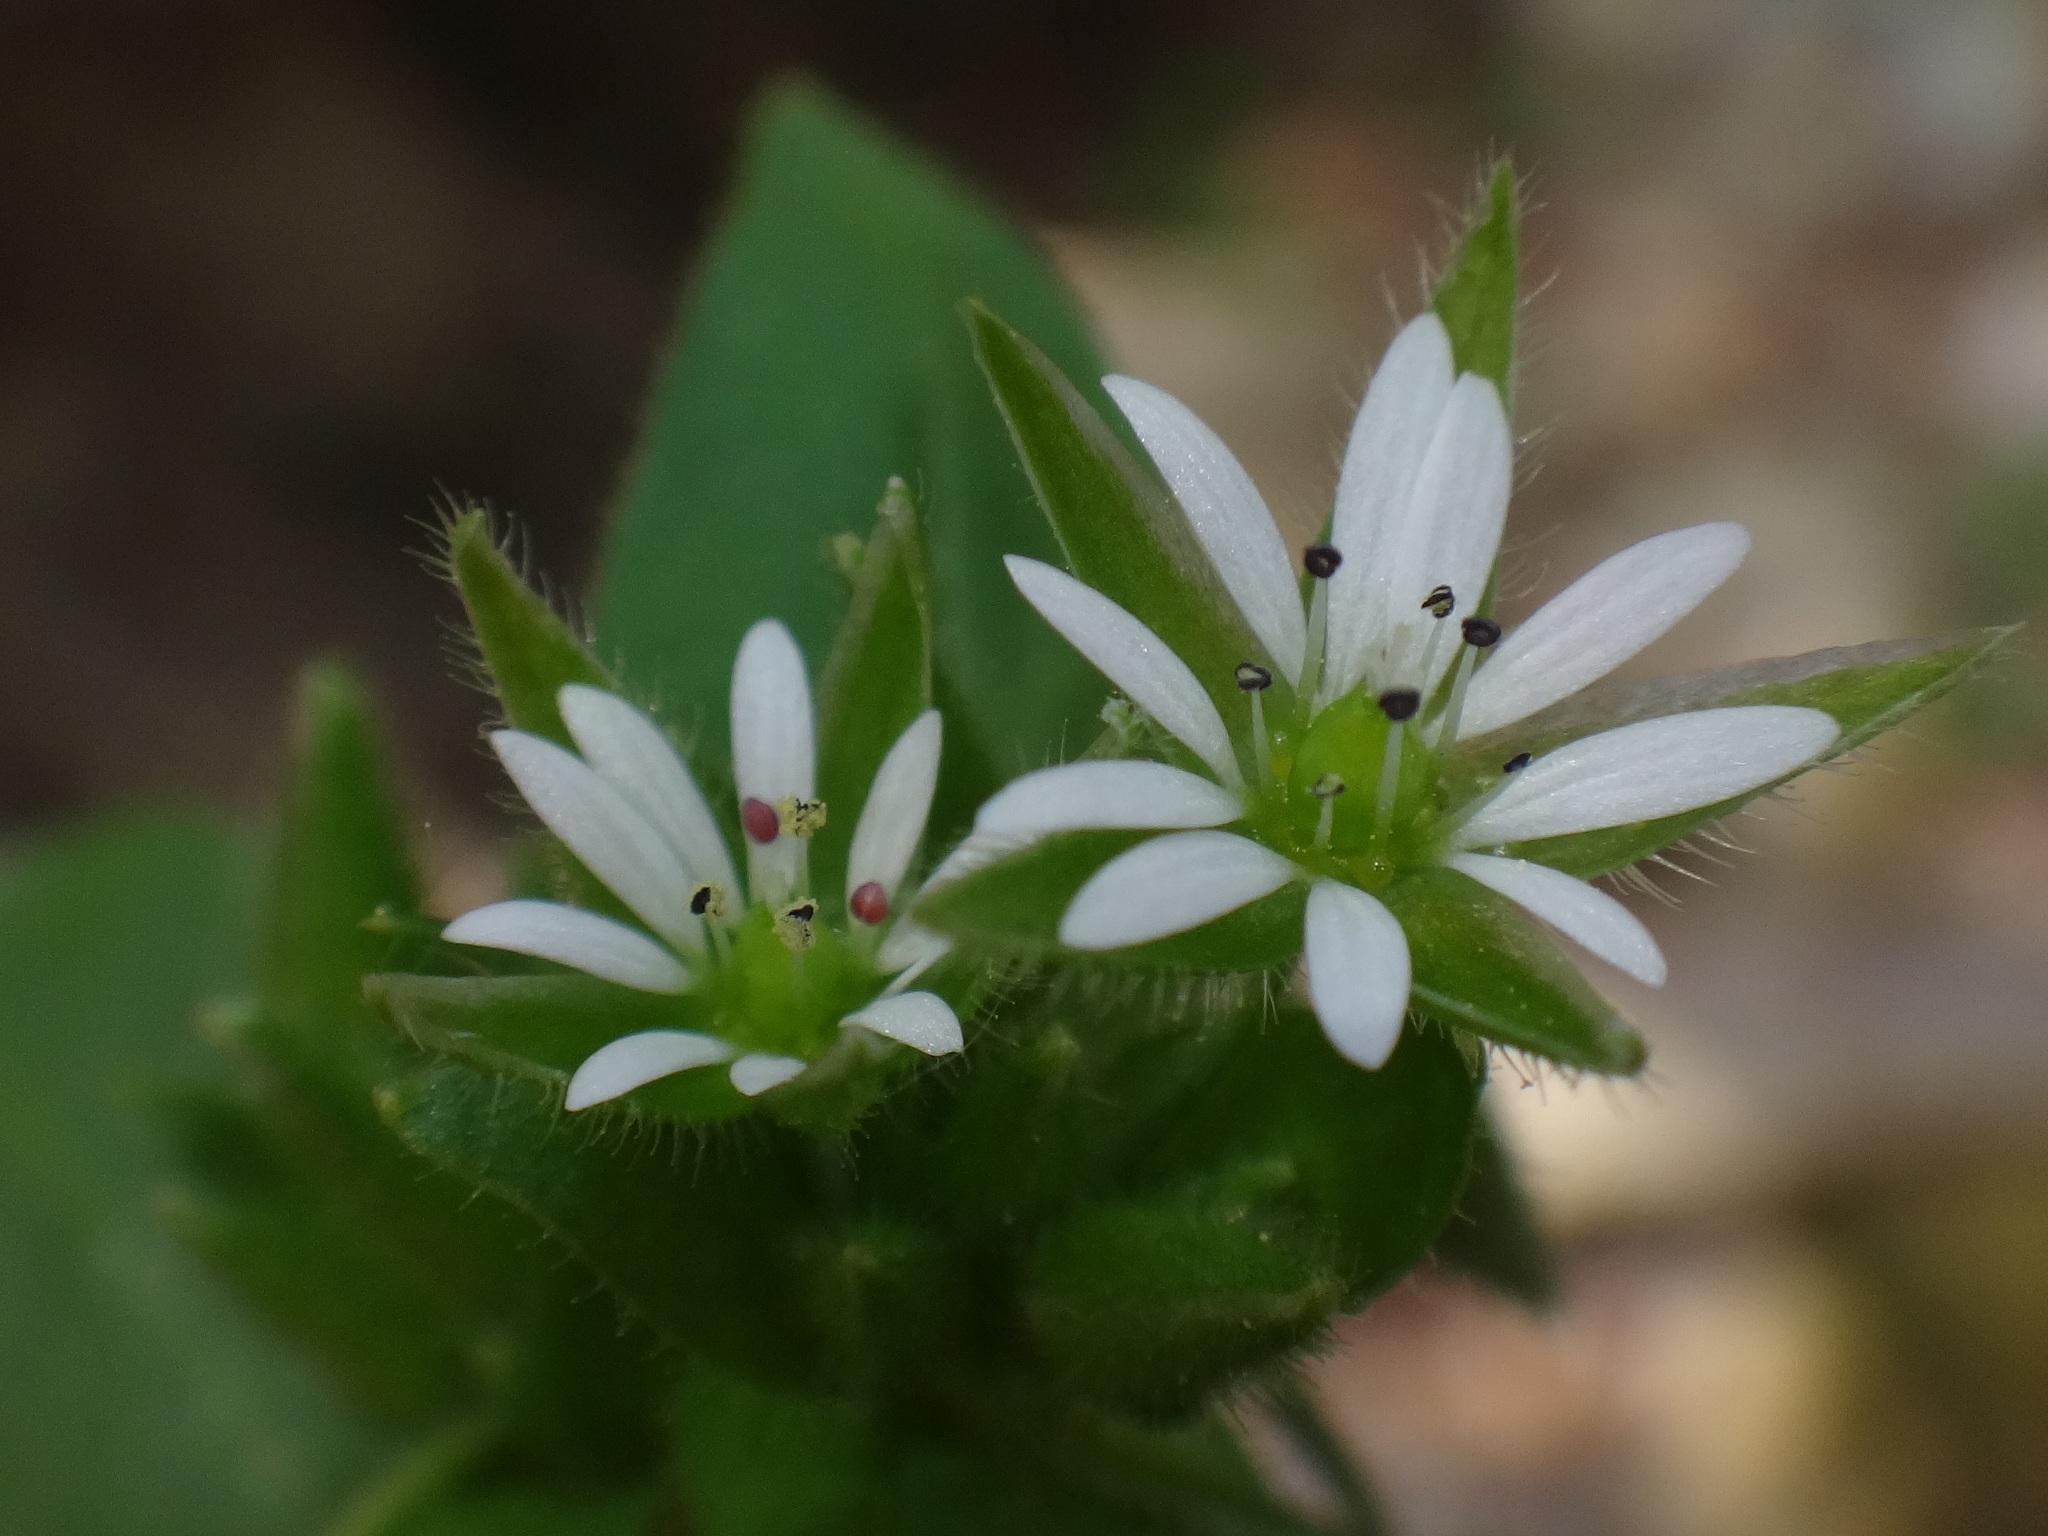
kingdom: Plantae
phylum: Tracheophyta
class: Magnoliopsida
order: Caryophyllales
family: Caryophyllaceae
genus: Stellaria
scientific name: Stellaria
